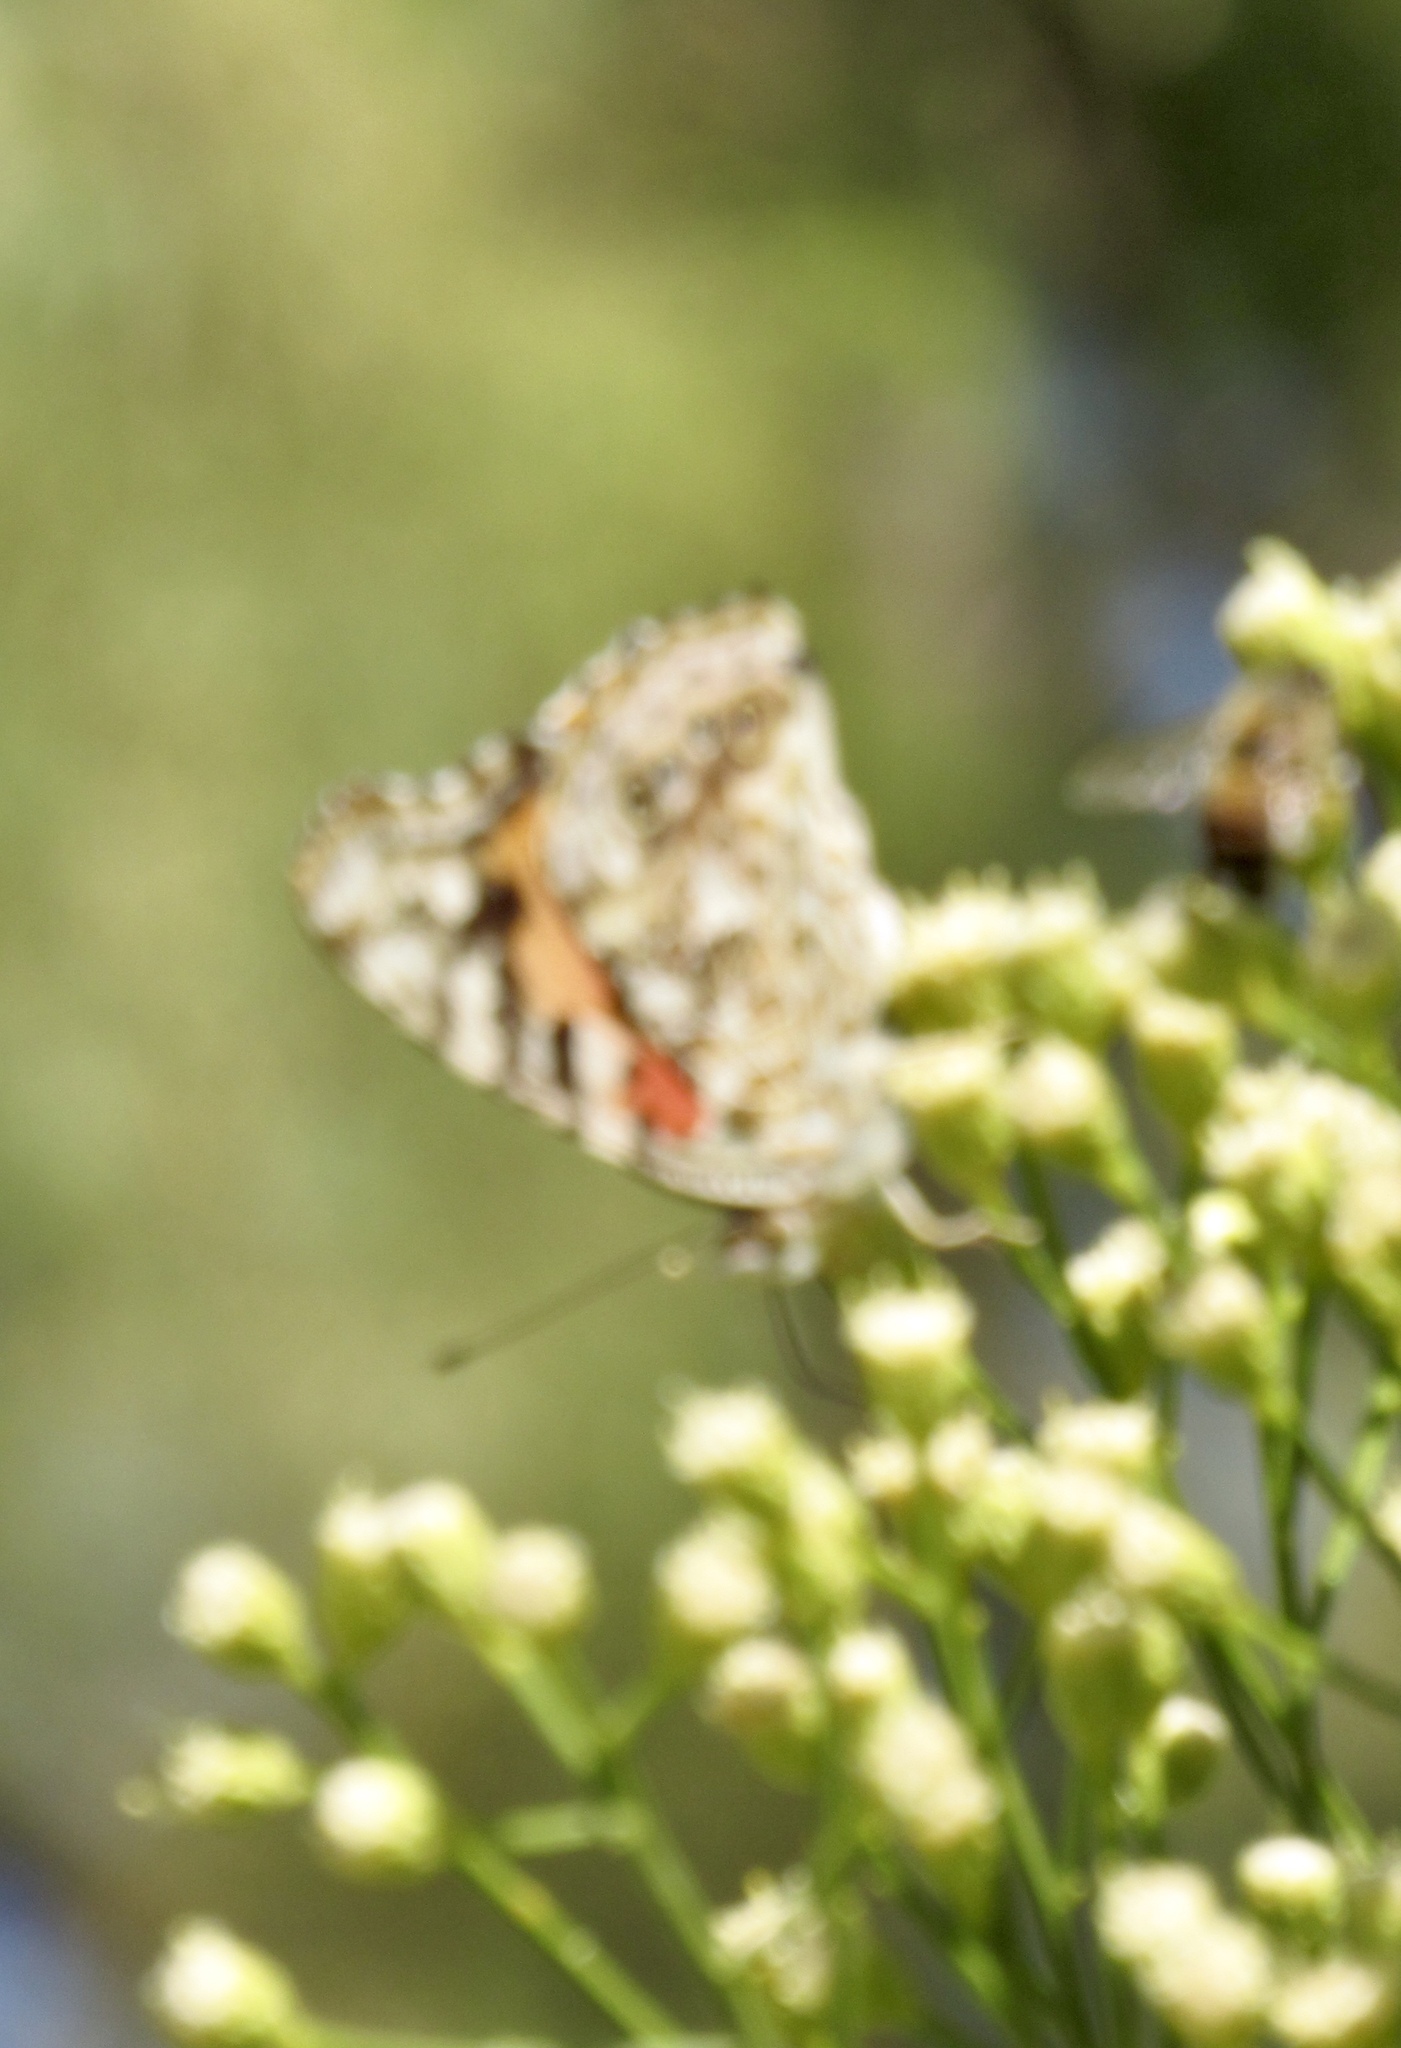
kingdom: Animalia
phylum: Arthropoda
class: Insecta
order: Lepidoptera
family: Nymphalidae
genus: Vanessa
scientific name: Vanessa cardui
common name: Painted lady
